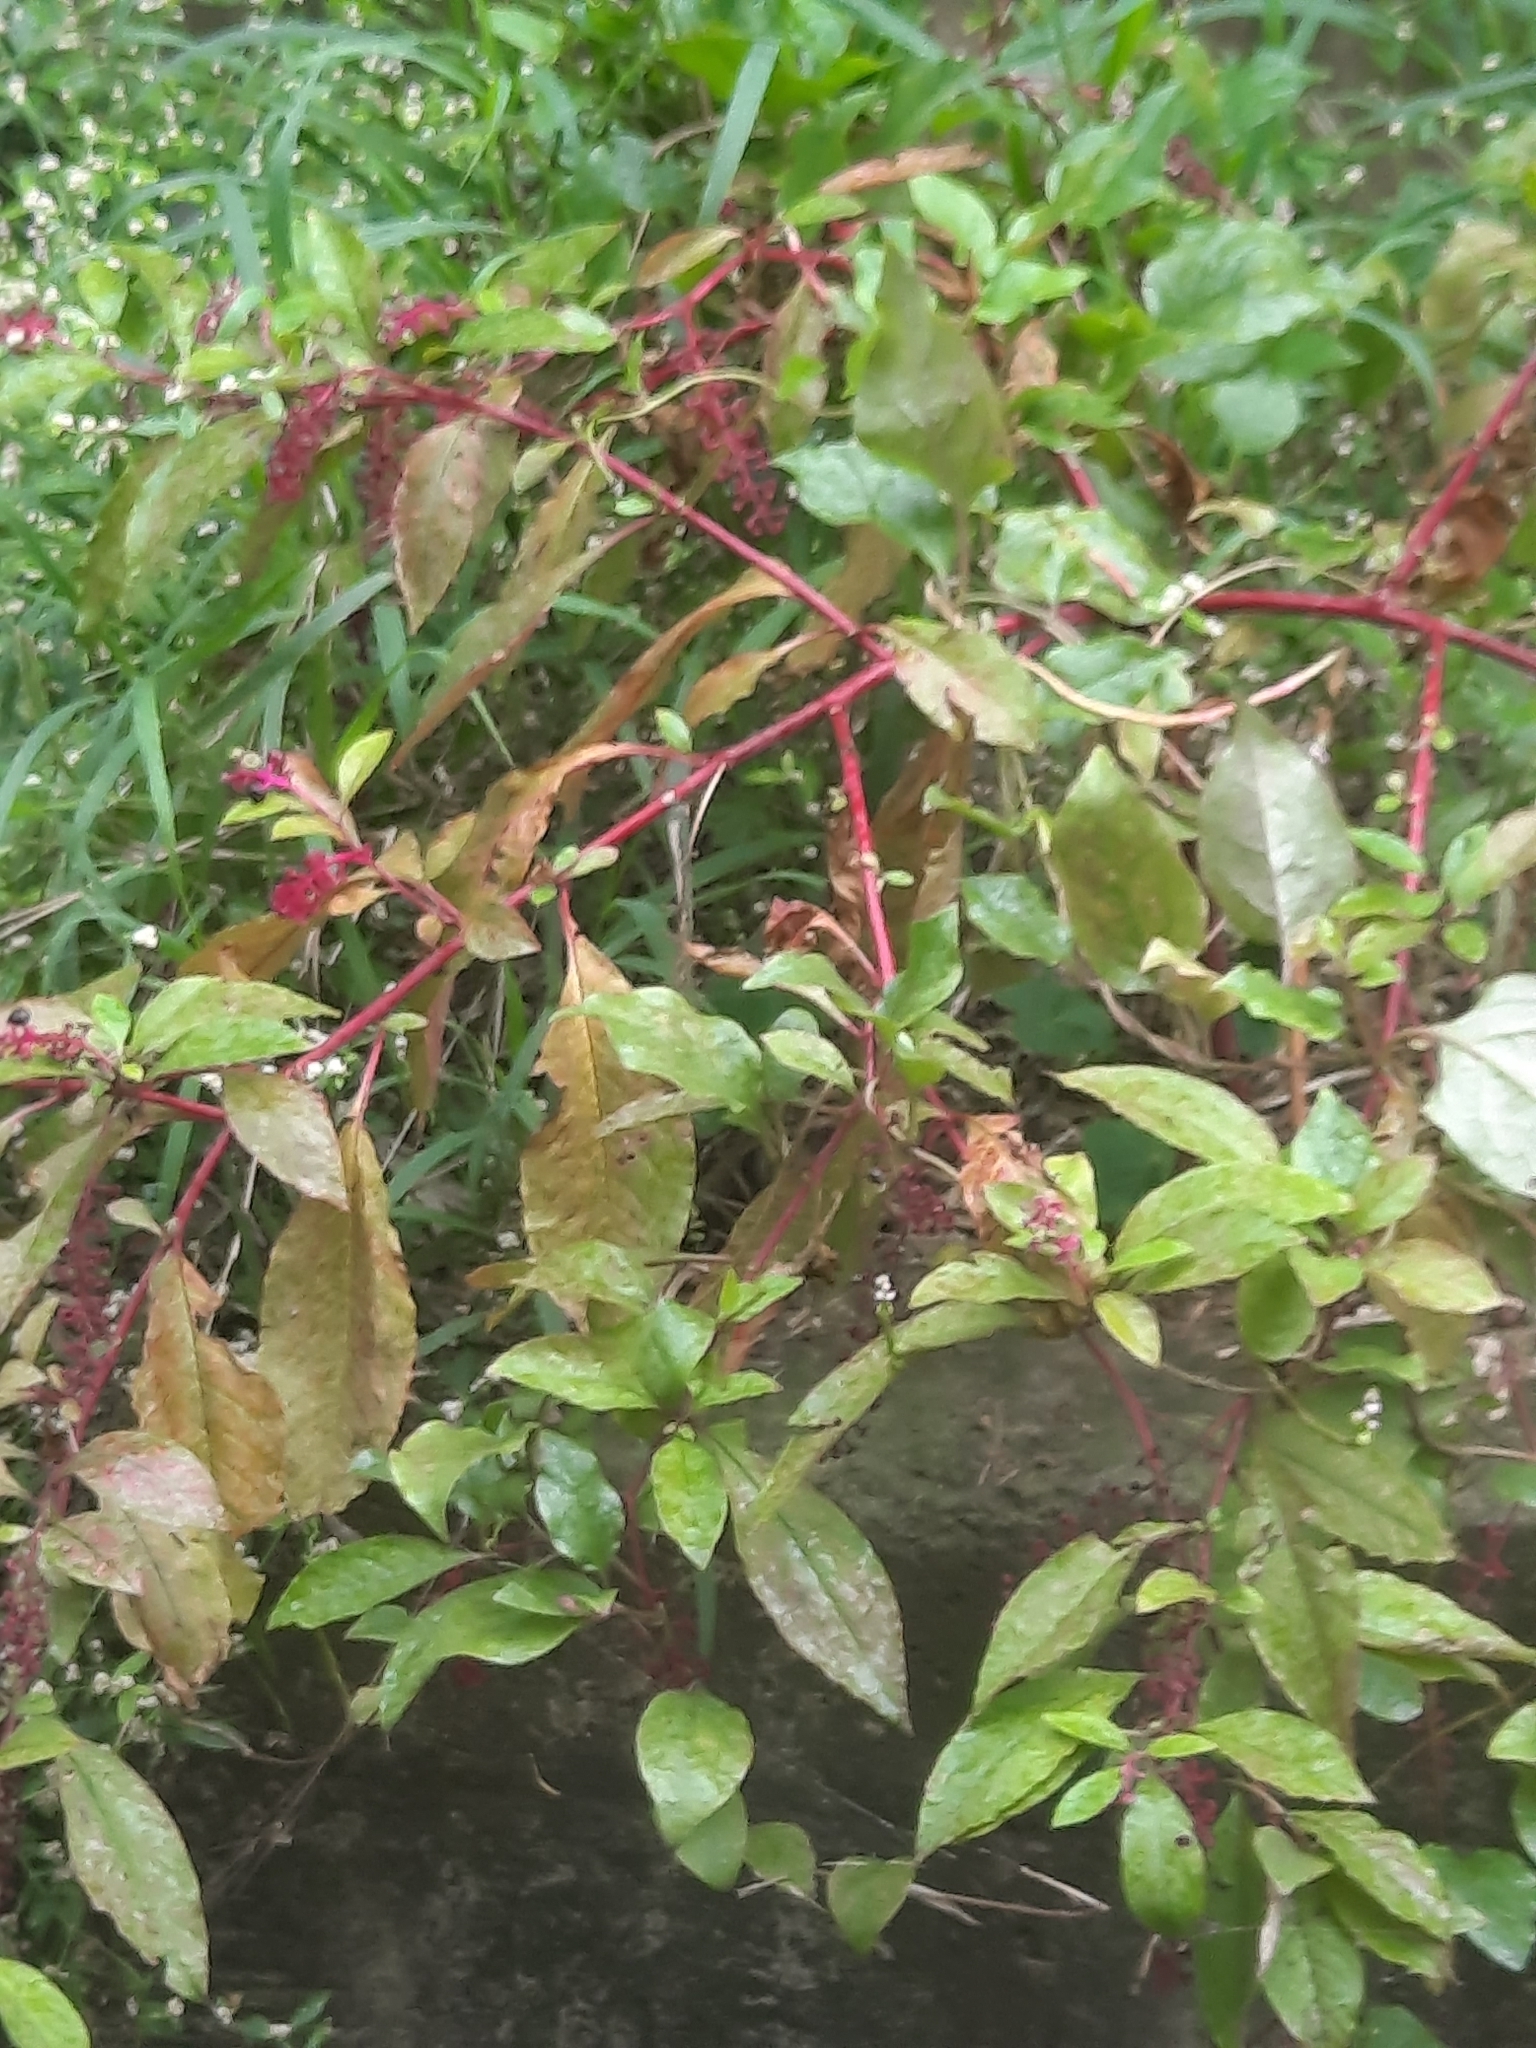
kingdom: Plantae
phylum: Tracheophyta
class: Magnoliopsida
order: Caryophyllales
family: Phytolaccaceae
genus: Phytolacca
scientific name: Phytolacca americana
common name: American pokeweed
